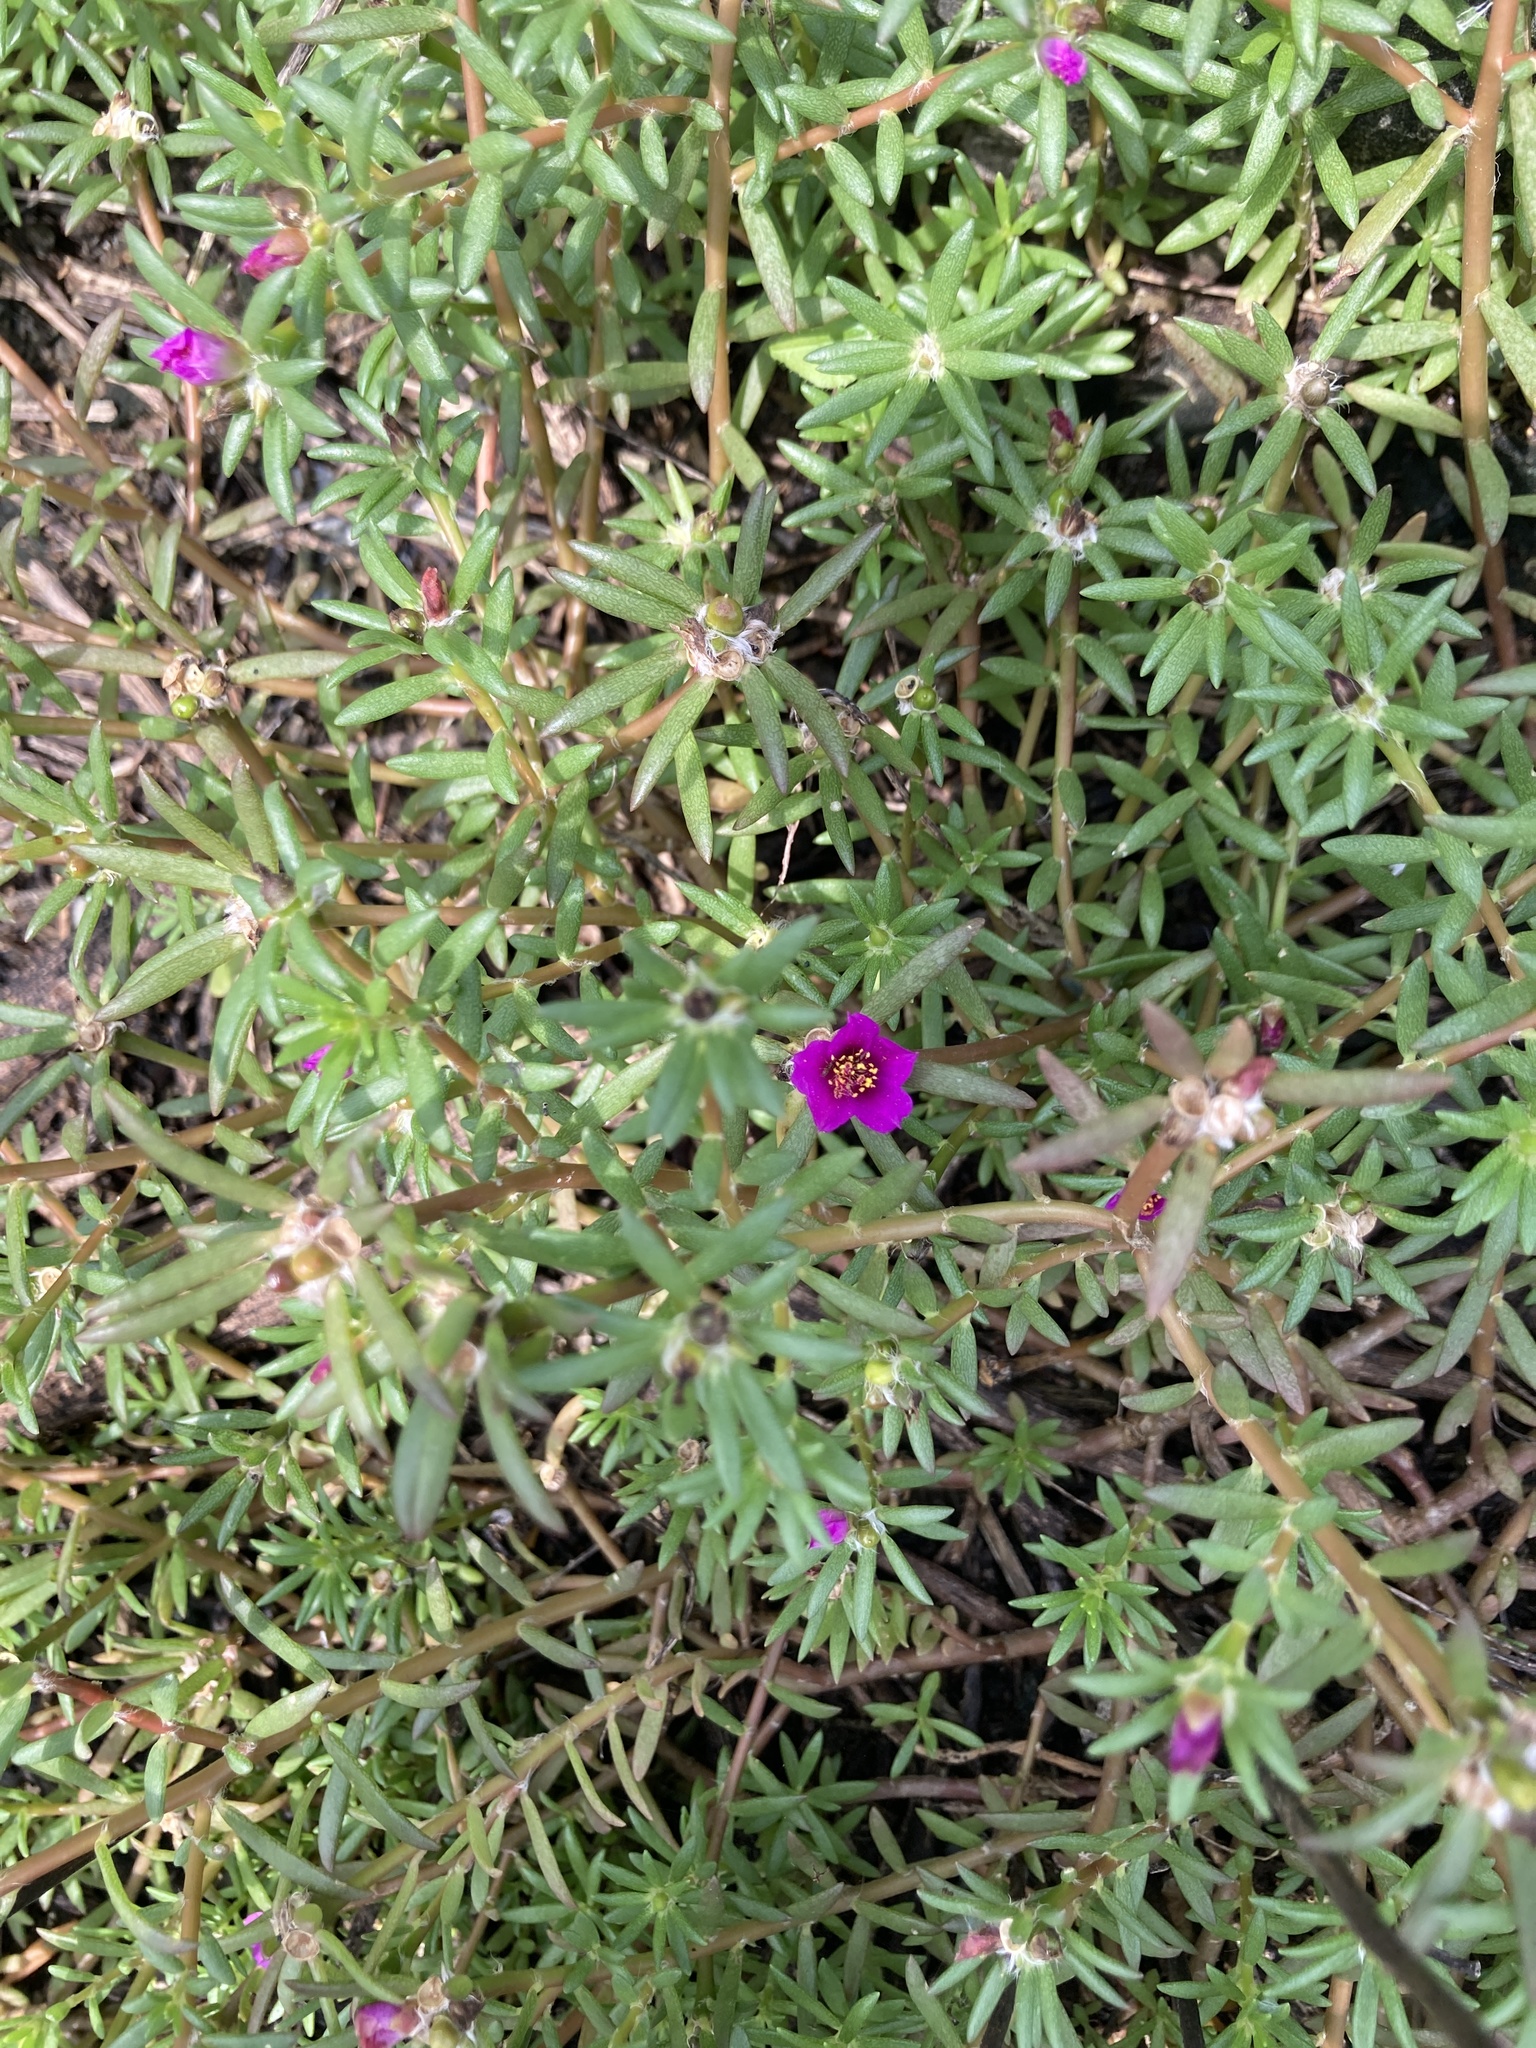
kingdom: Plantae
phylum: Tracheophyta
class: Magnoliopsida
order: Caryophyllales
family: Portulacaceae
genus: Portulaca
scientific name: Portulaca pilosa
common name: Kiss me quick
